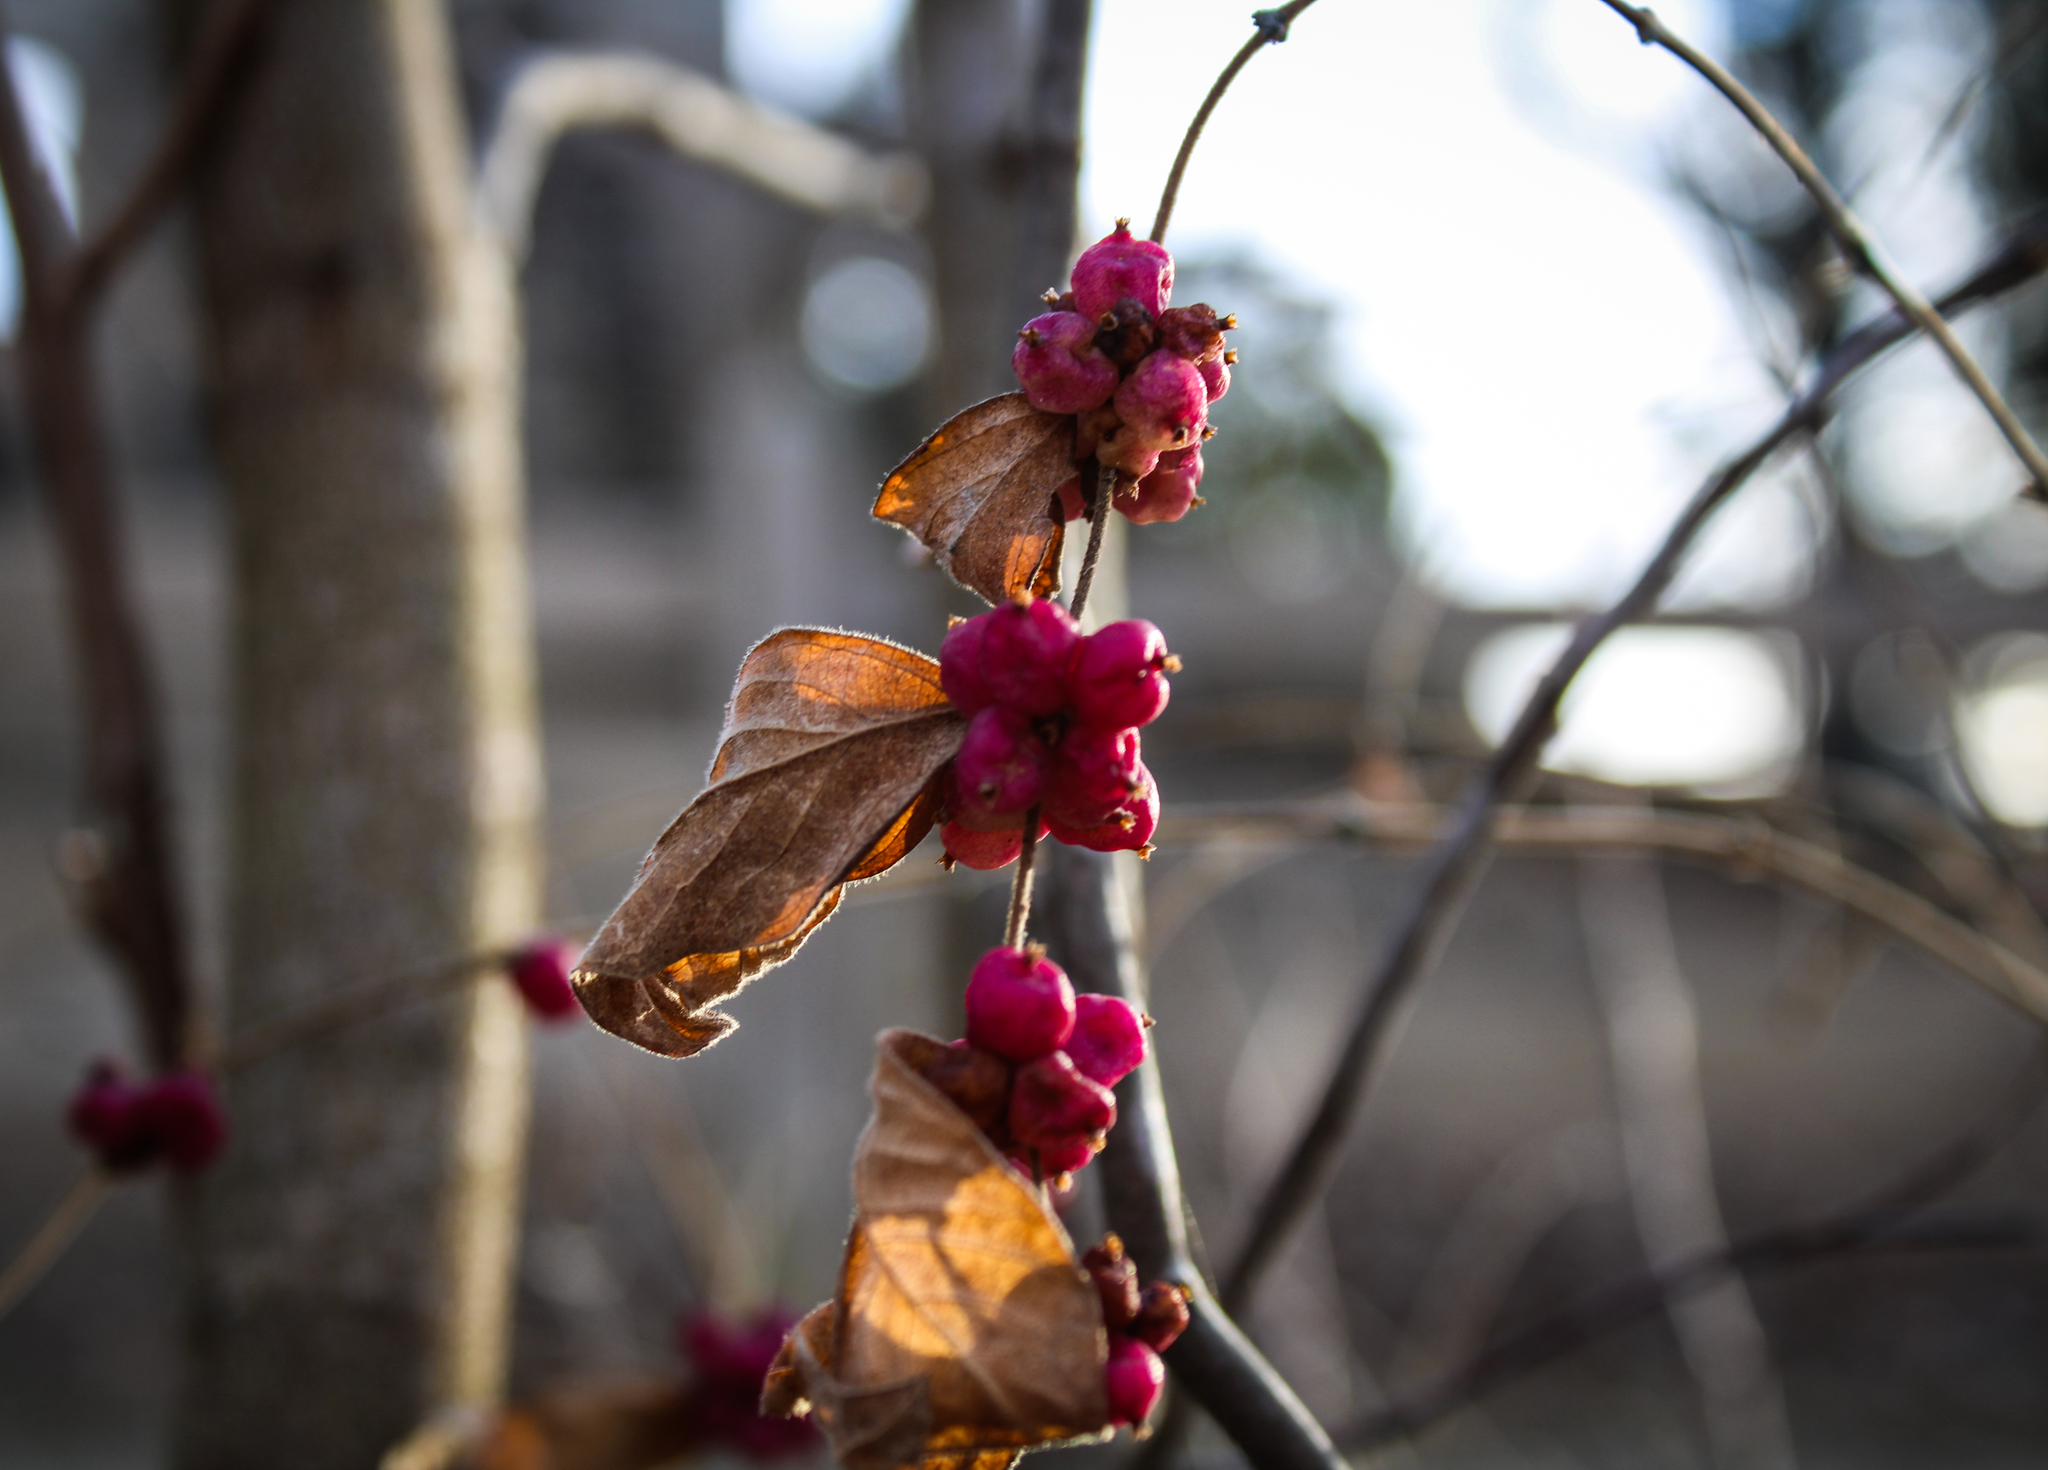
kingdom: Plantae
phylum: Tracheophyta
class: Magnoliopsida
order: Dipsacales
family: Caprifoliaceae
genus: Symphoricarpos
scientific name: Symphoricarpos orbiculatus
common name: Coralberry
